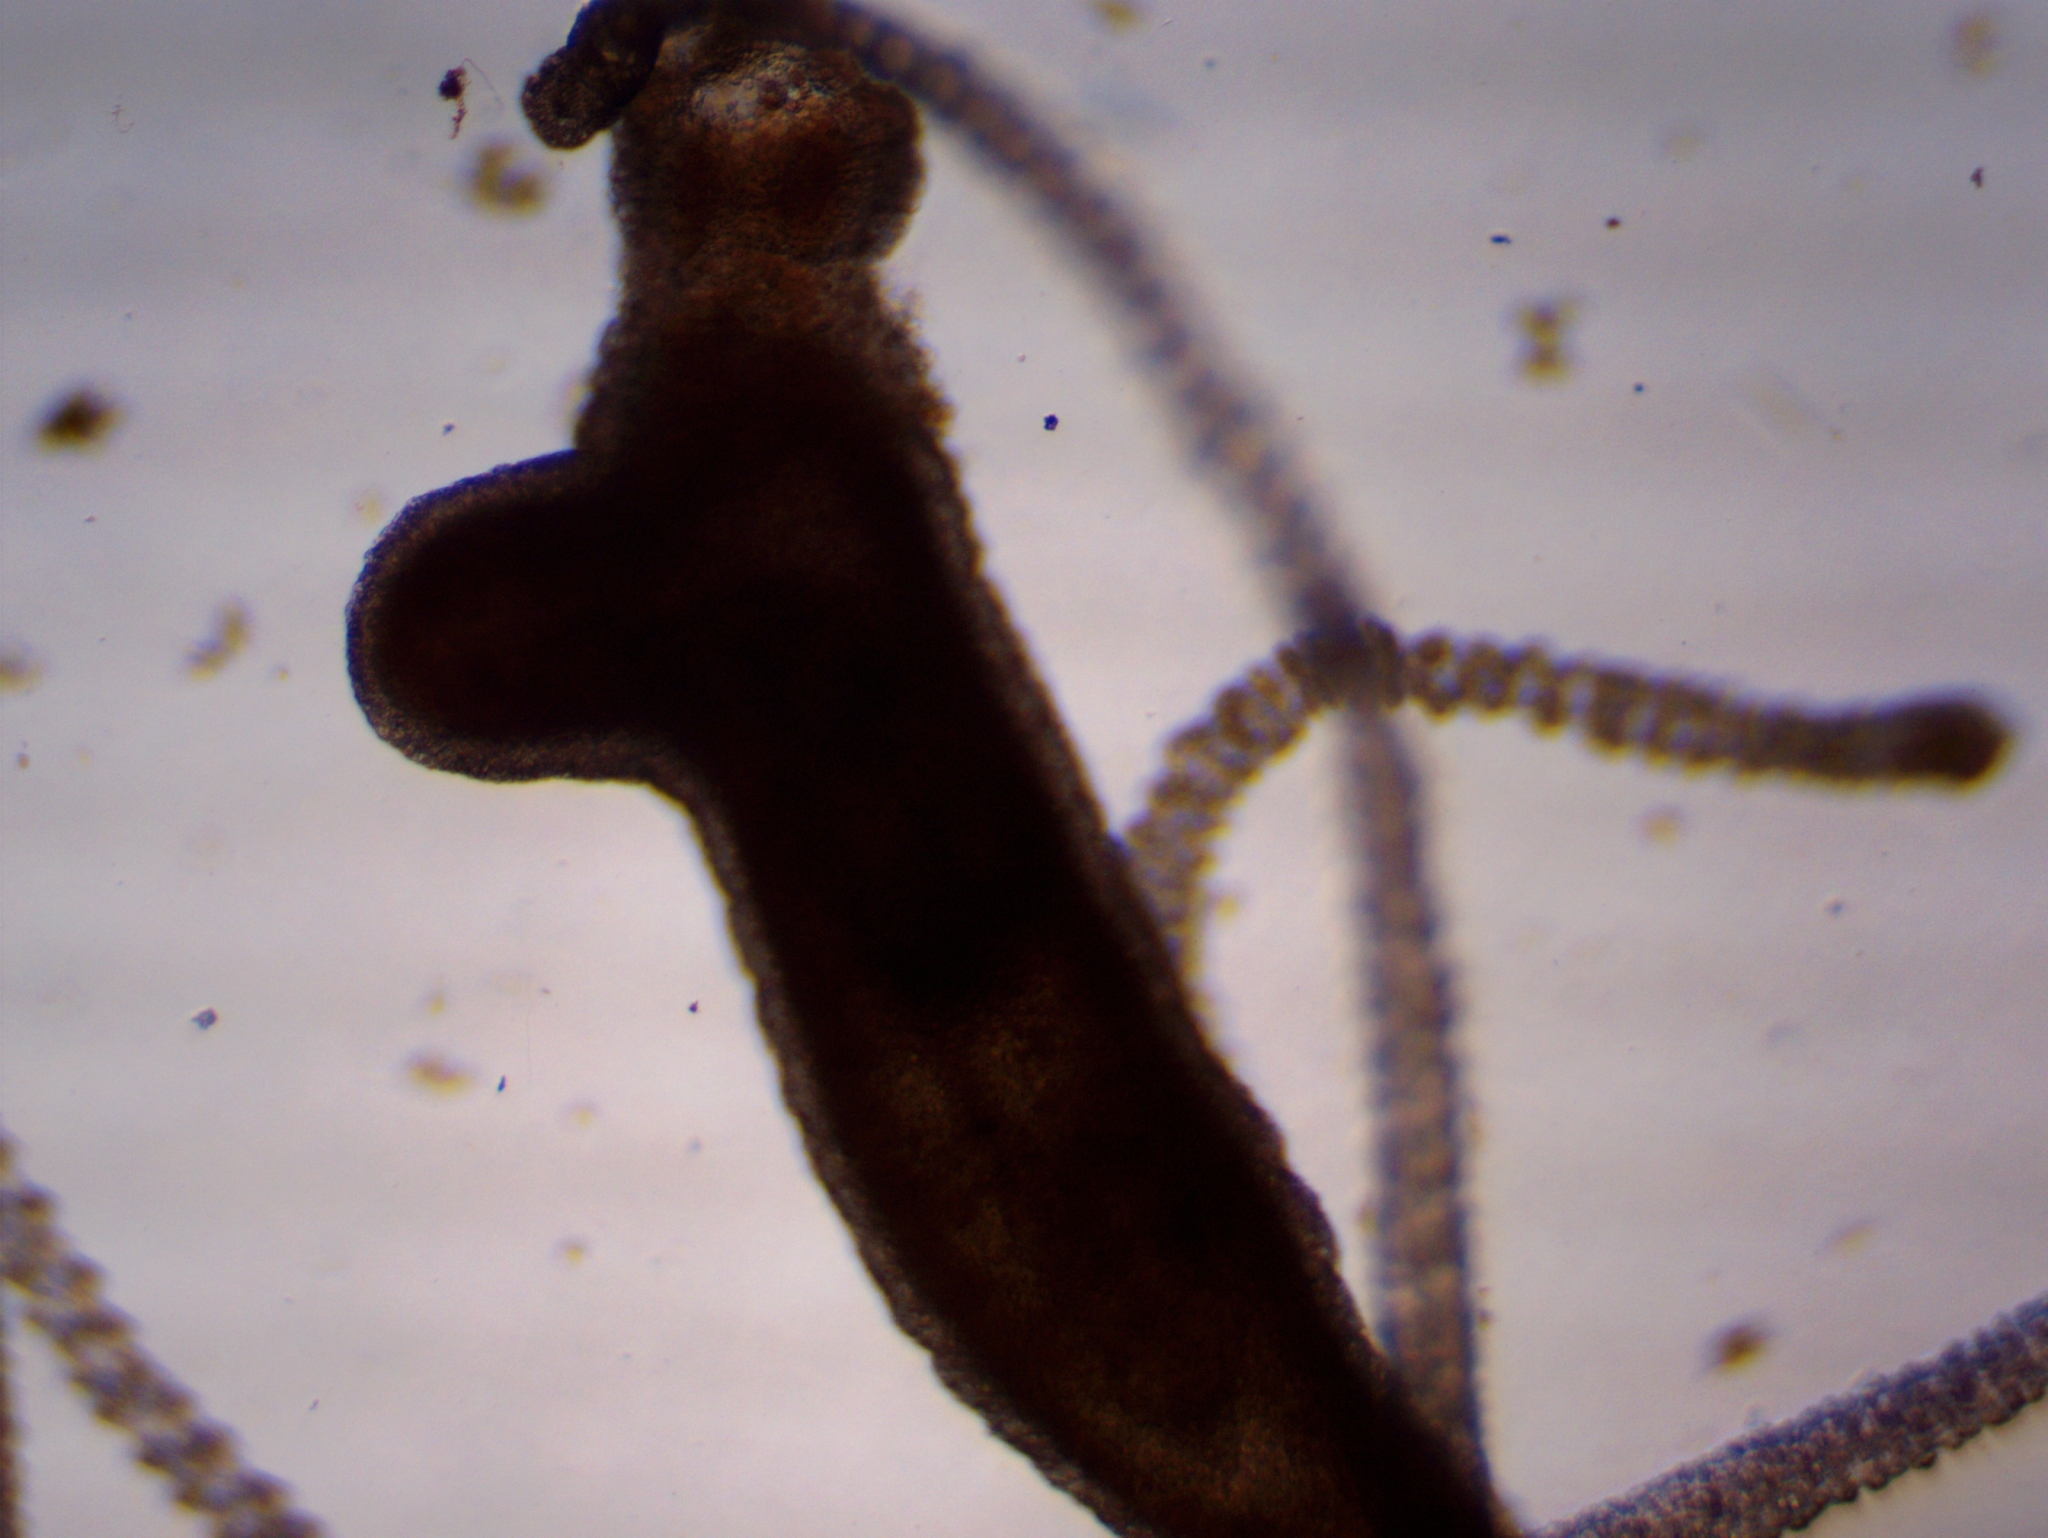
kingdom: Animalia
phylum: Cnidaria
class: Hydrozoa
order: Anthoathecata
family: Hydridae
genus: Hydra
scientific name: Hydra oligactis
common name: Brown hydra
